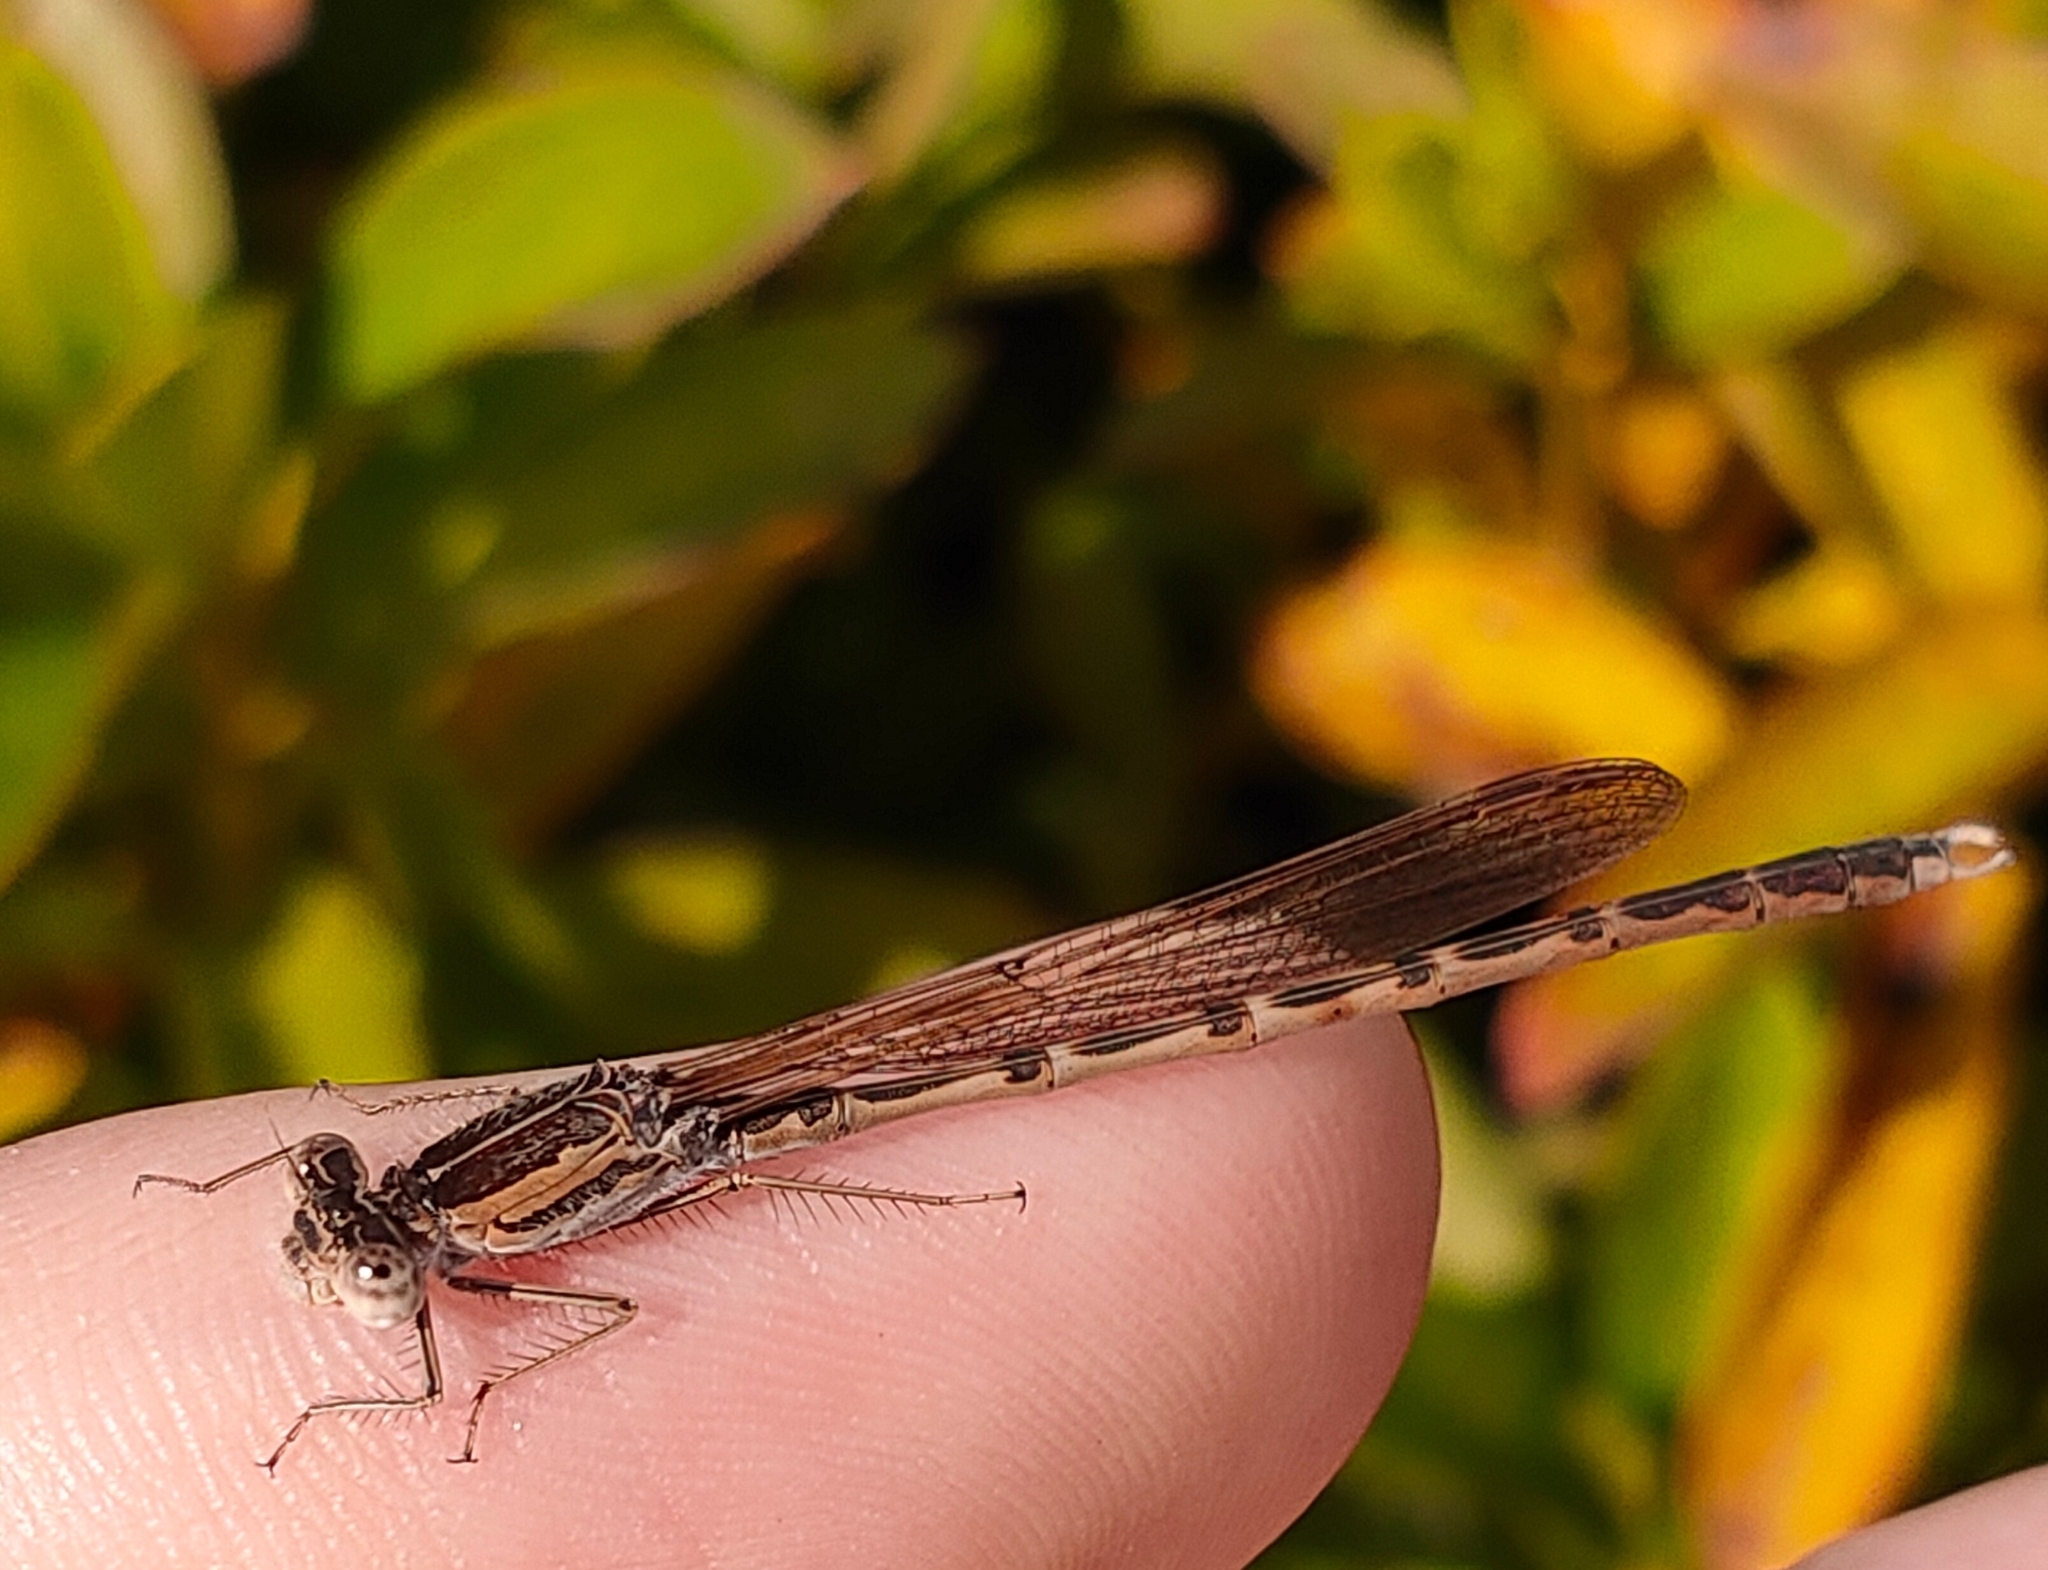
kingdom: Animalia
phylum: Arthropoda
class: Insecta
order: Odonata
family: Lestidae
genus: Sympecma
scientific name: Sympecma paedisca
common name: Siberian winter damsel
